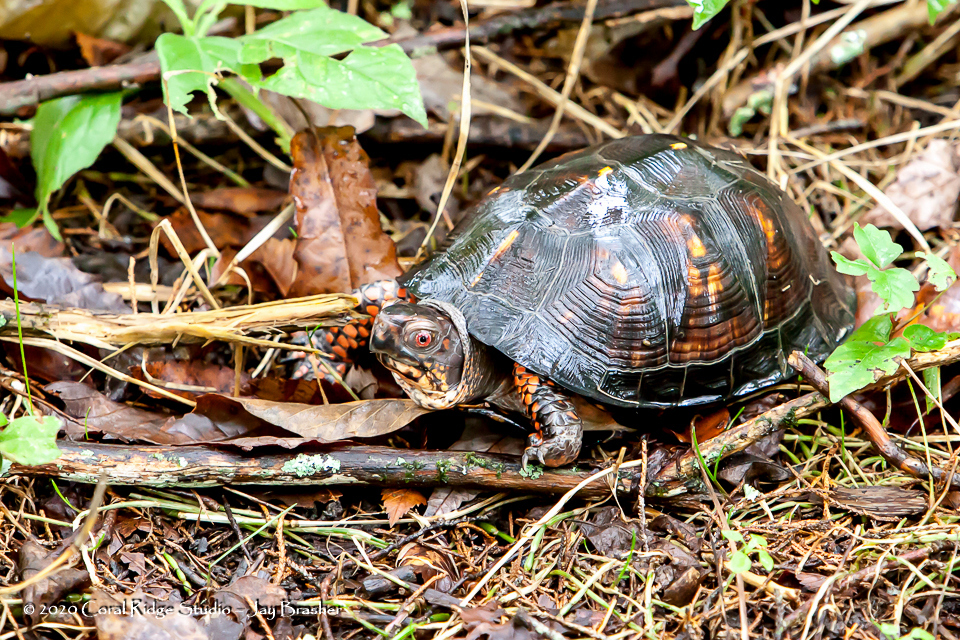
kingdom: Animalia
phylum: Chordata
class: Testudines
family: Emydidae
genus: Terrapene
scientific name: Terrapene carolina
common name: Common box turtle
